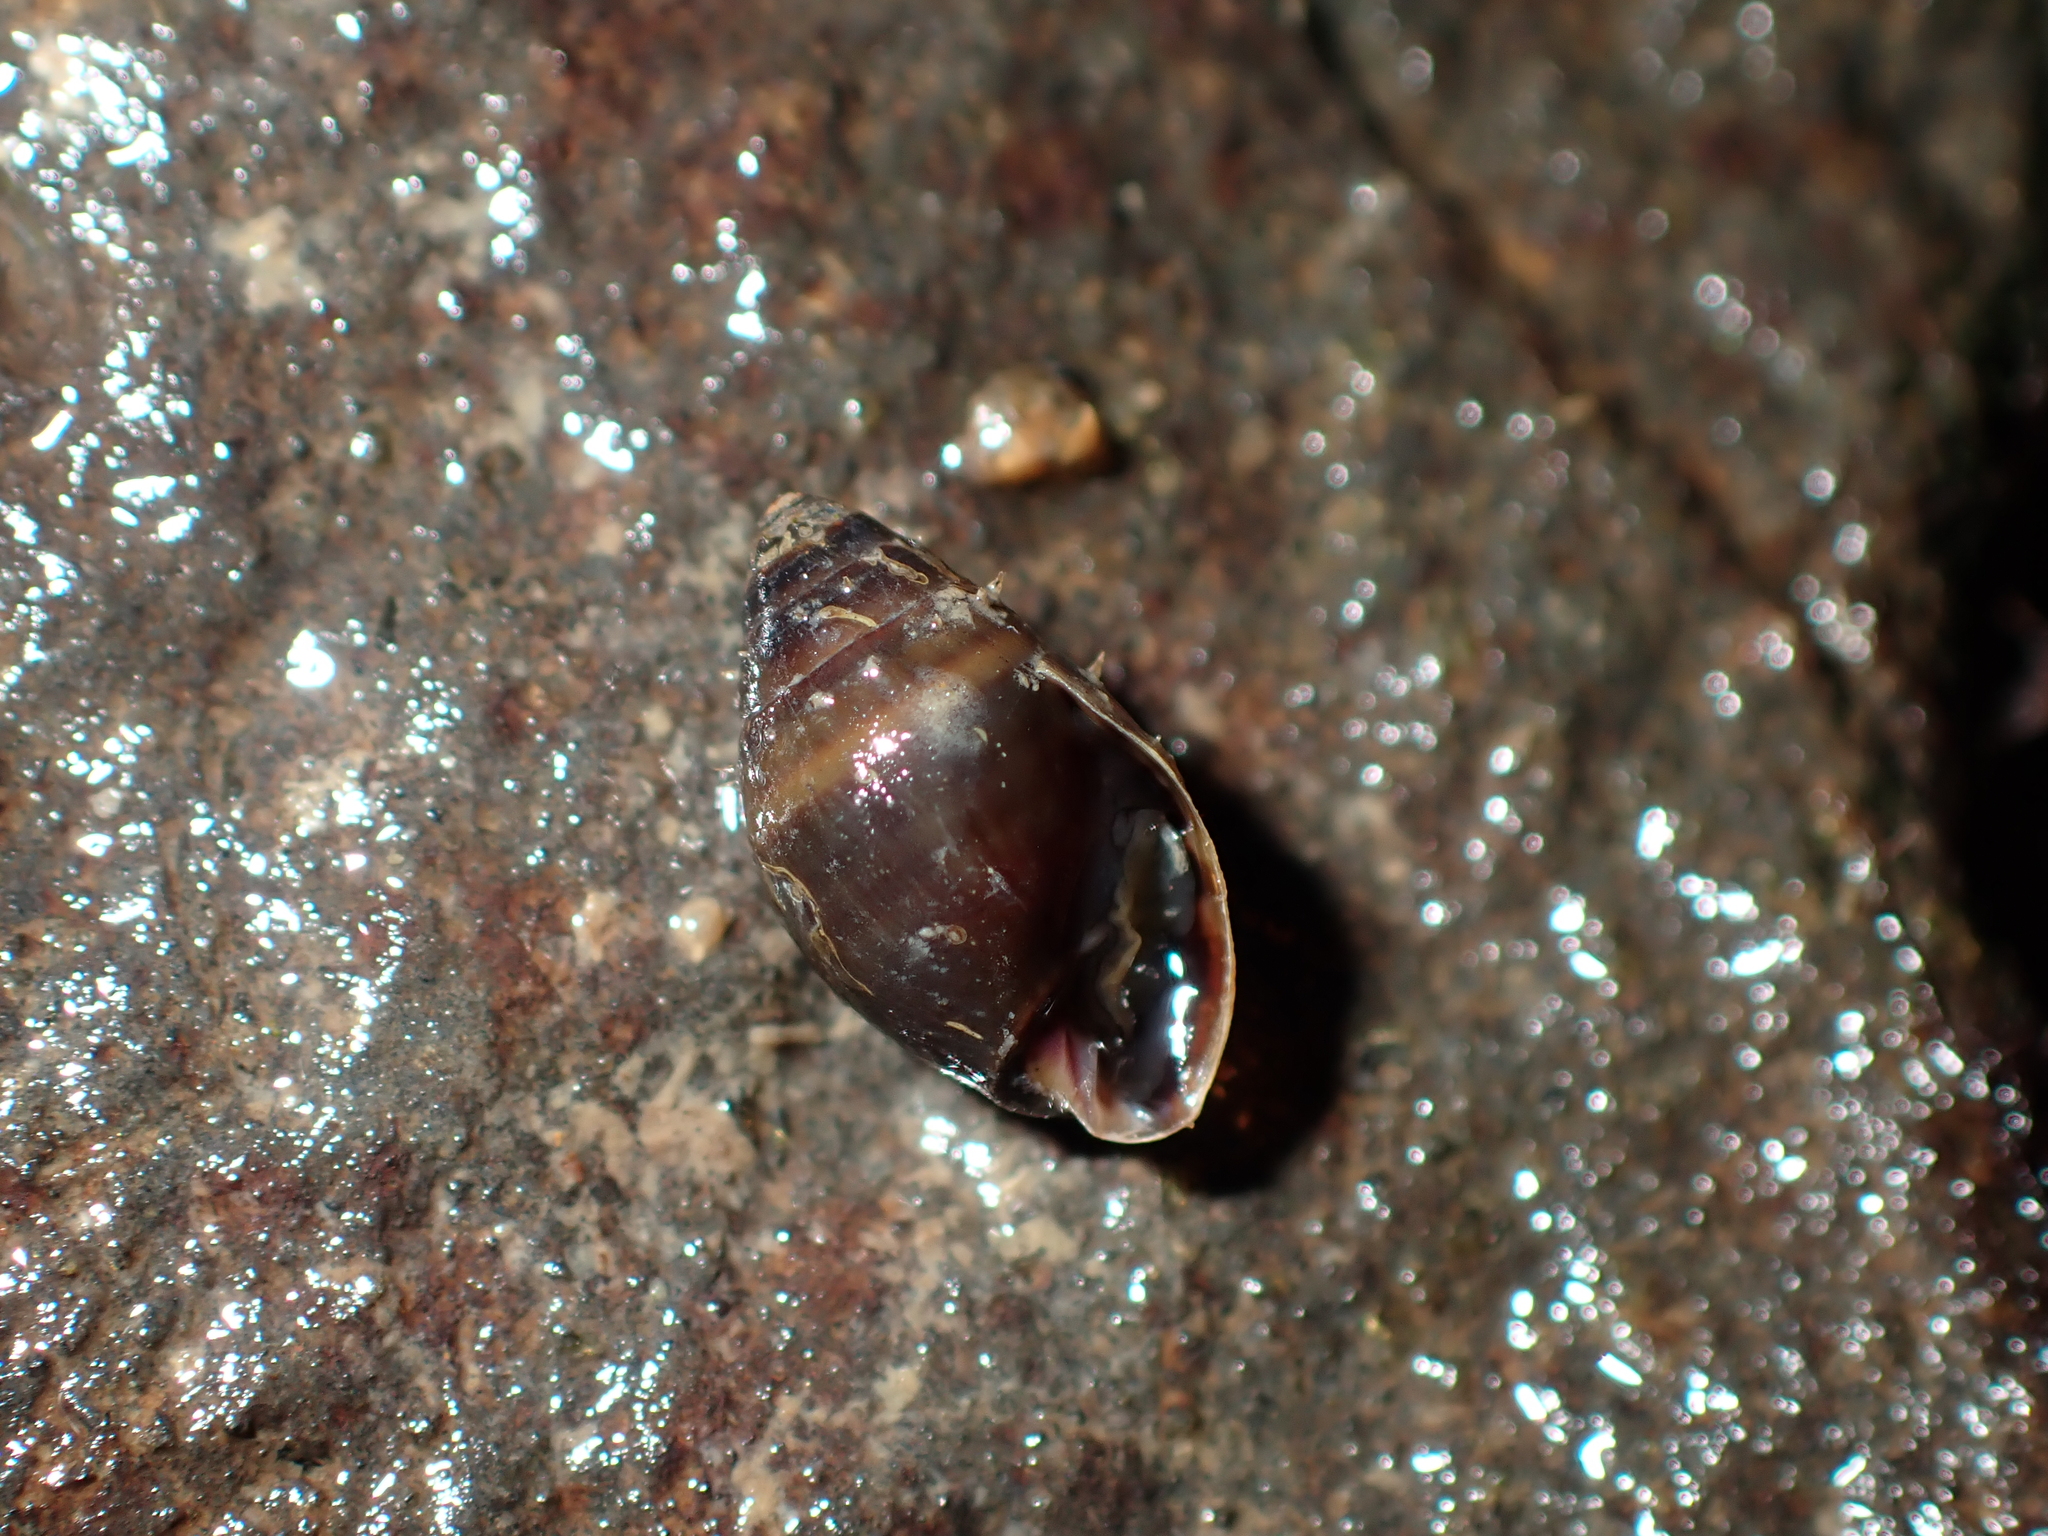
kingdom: Animalia
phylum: Mollusca
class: Gastropoda
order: Ellobiida
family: Ellobiidae
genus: Pleuroloba
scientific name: Pleuroloba costellaris
